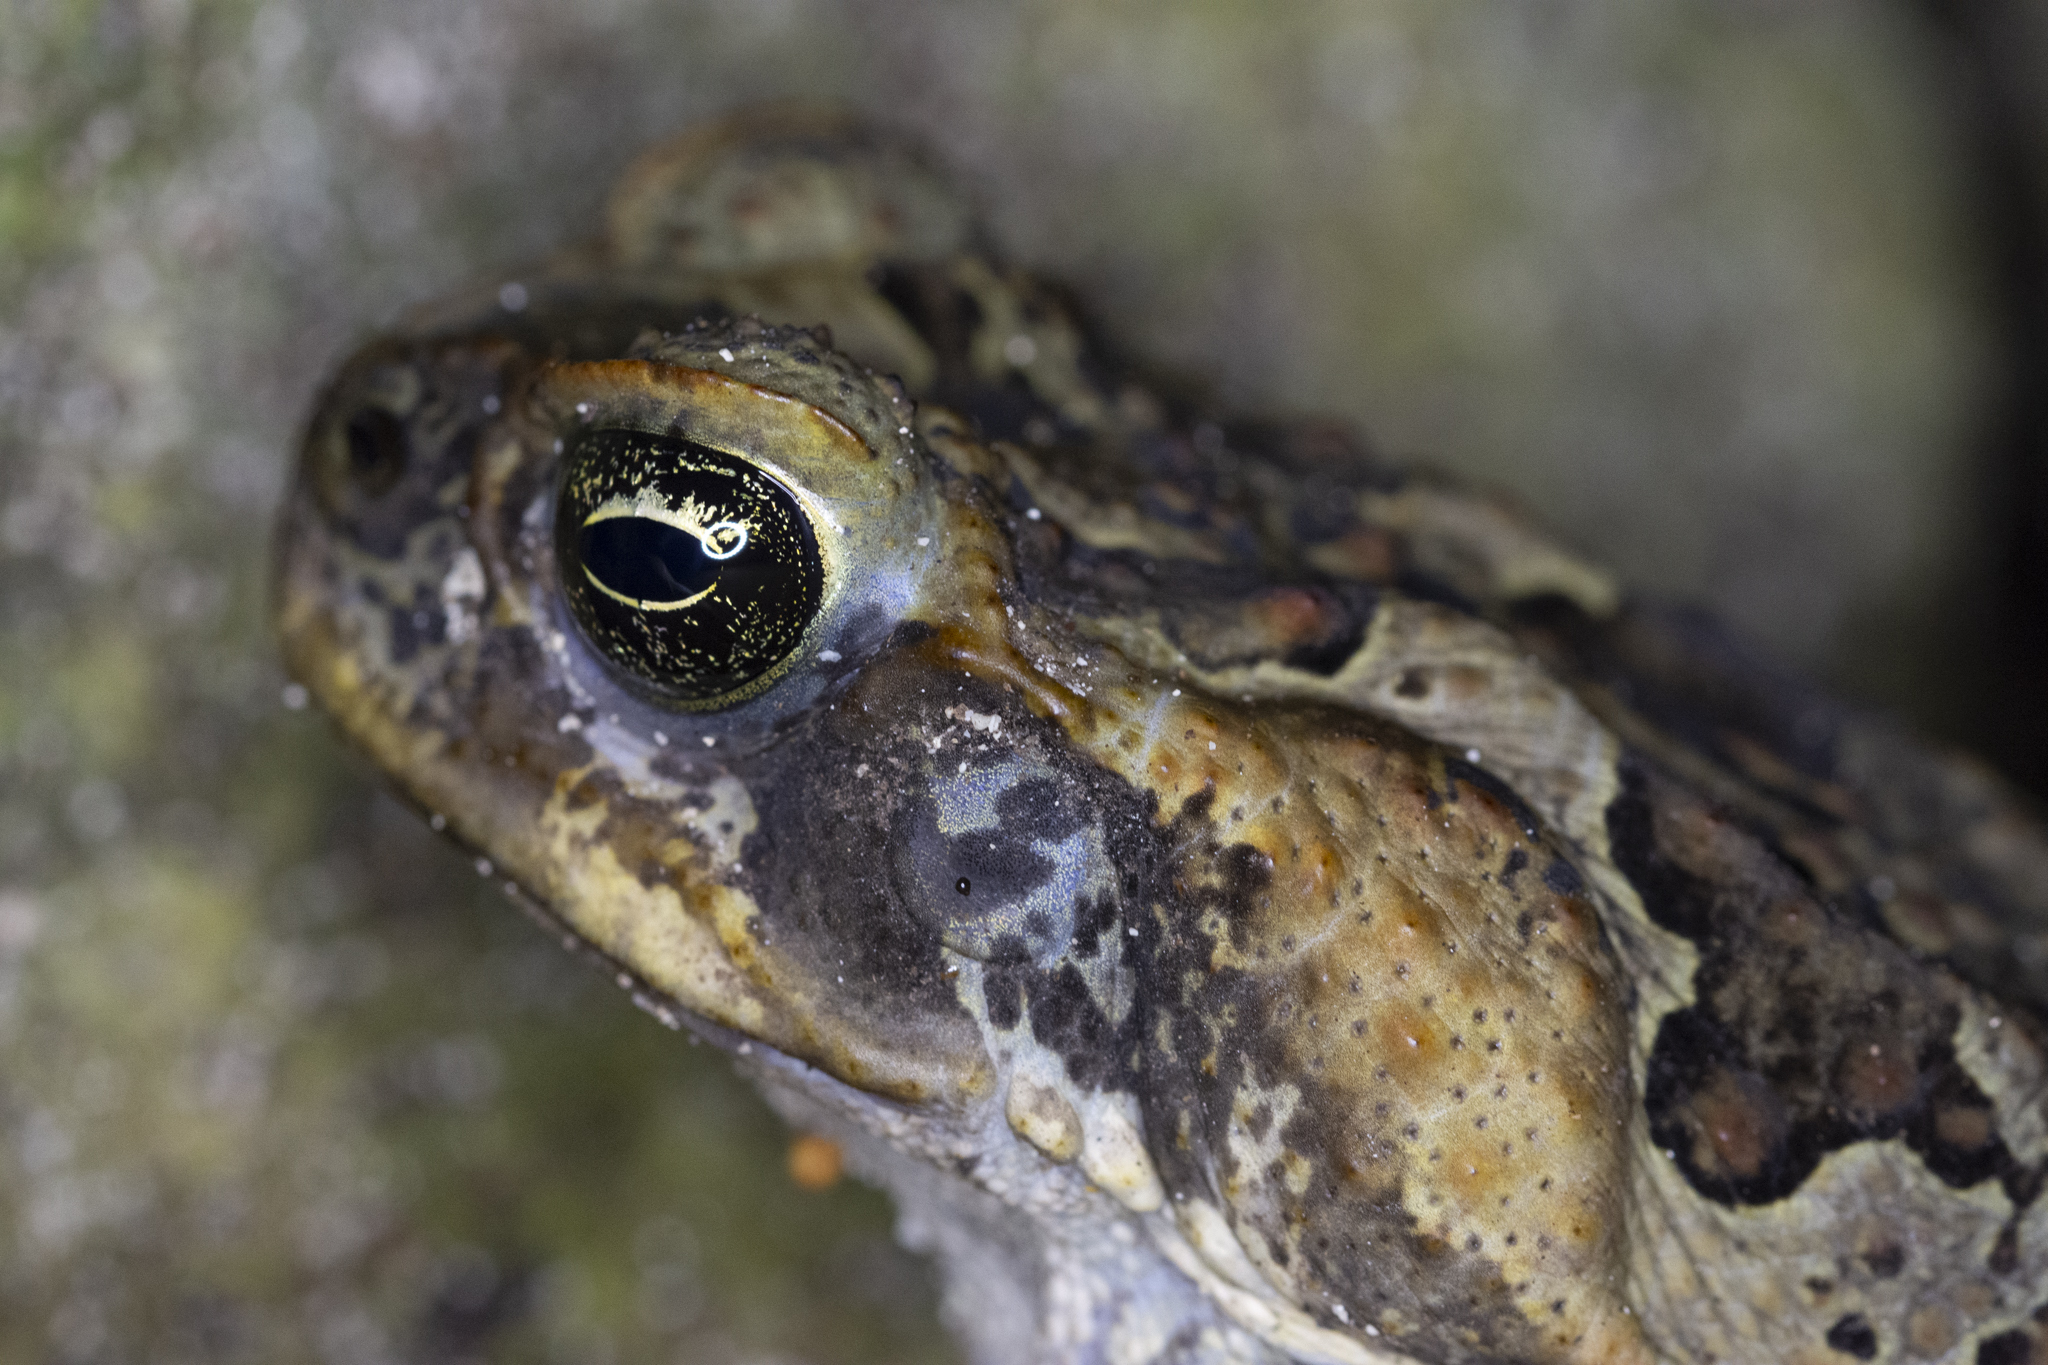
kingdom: Animalia
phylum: Chordata
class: Amphibia
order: Anura
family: Bufonidae
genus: Rhinella
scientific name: Rhinella marina
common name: Cane toad
